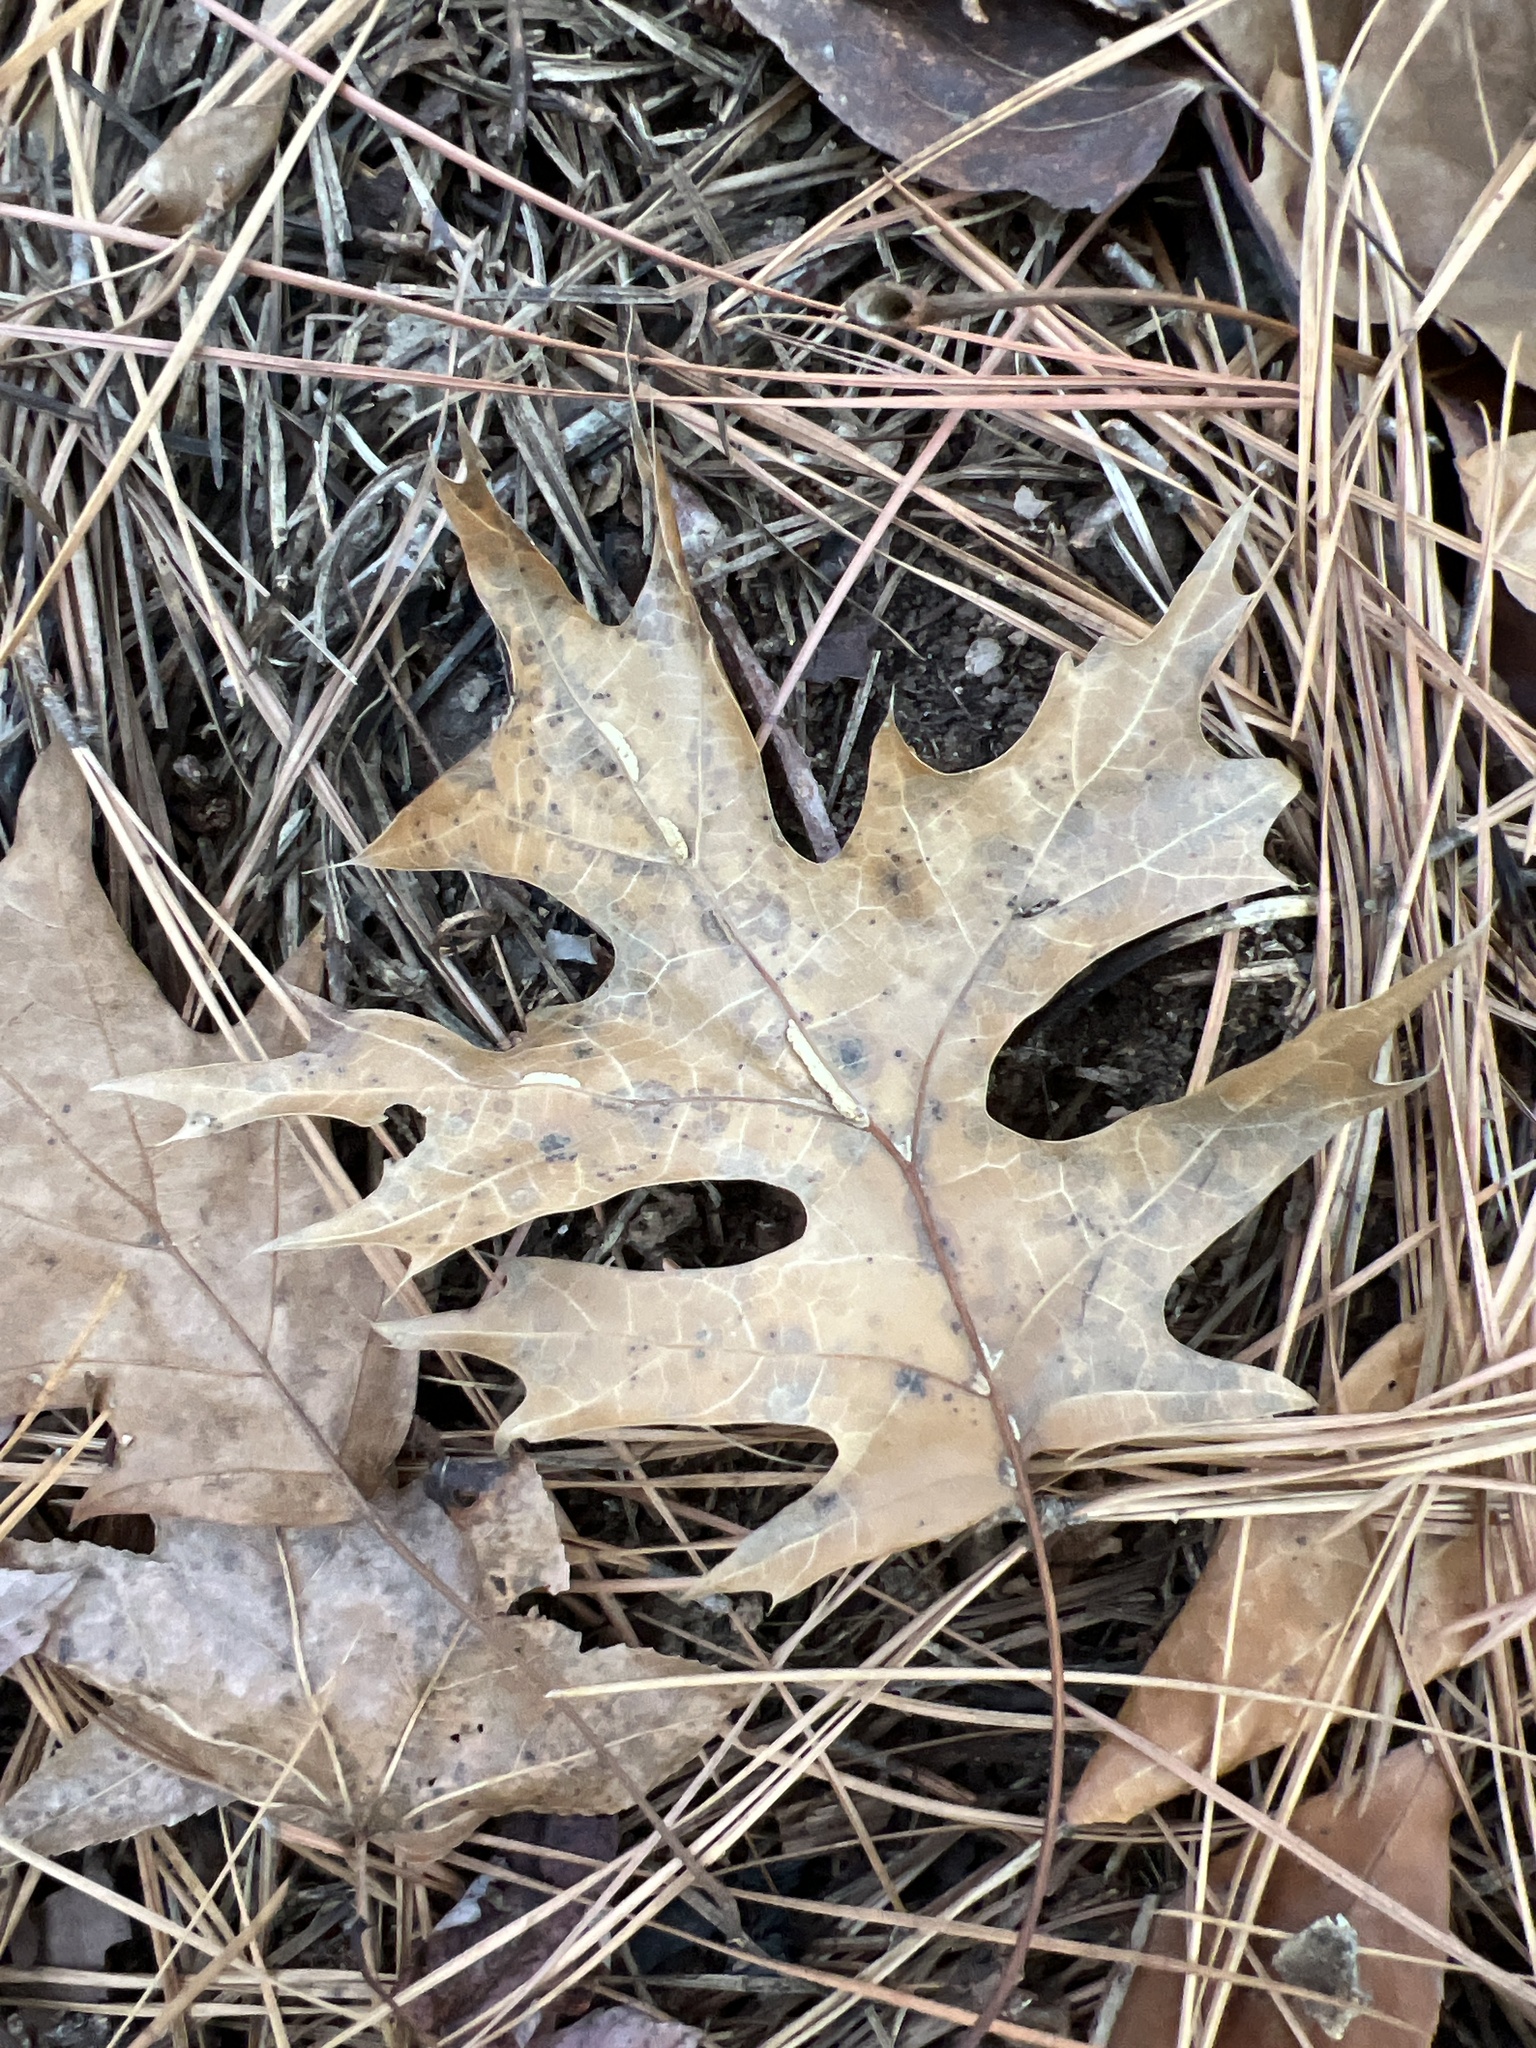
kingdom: Plantae
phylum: Tracheophyta
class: Magnoliopsida
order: Fagales
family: Fagaceae
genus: Quercus
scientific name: Quercus coccinea
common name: Scarlet oak
